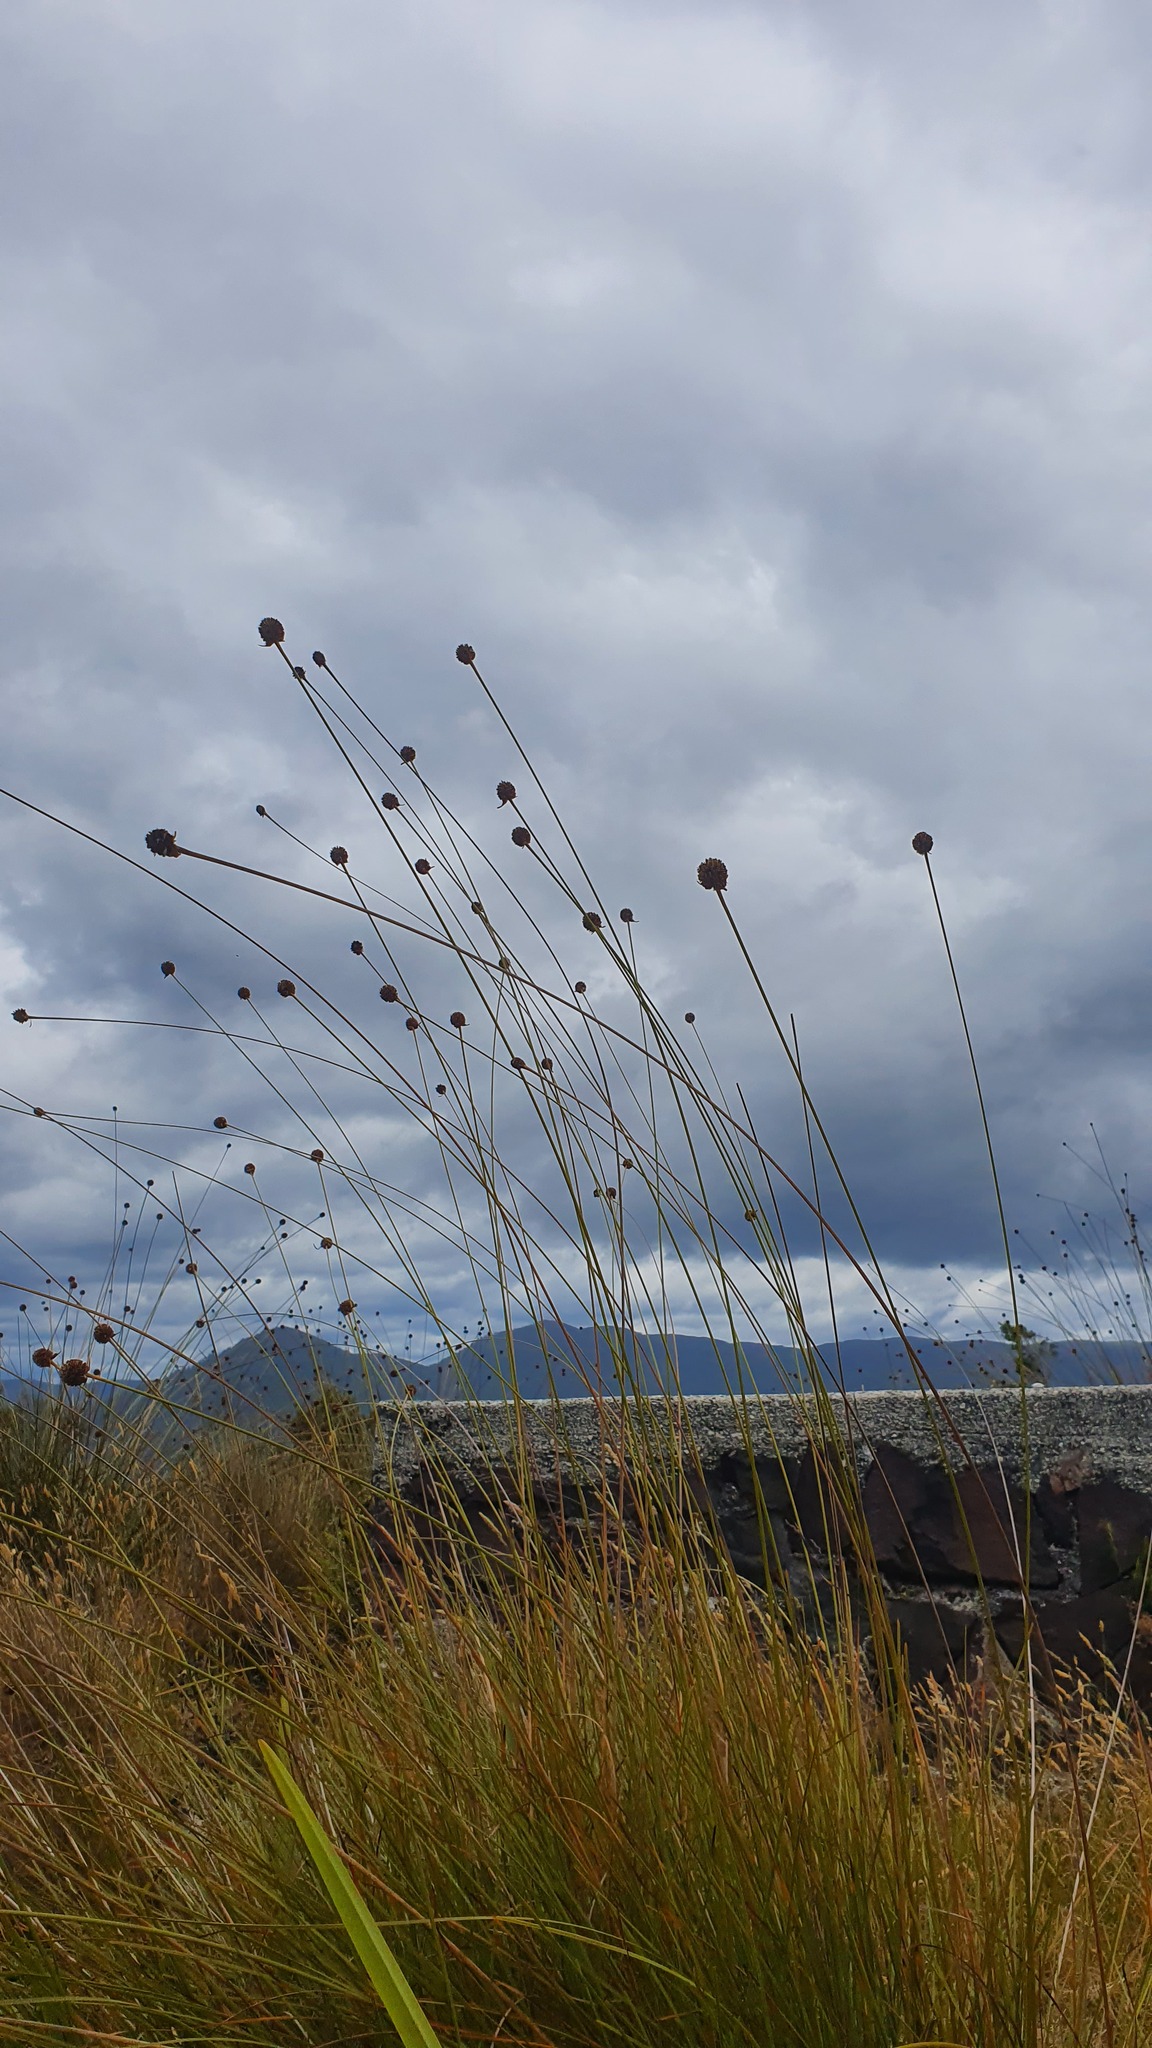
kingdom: Plantae
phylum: Tracheophyta
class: Liliopsida
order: Poales
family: Cyperaceae
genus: Gymnoschoenus
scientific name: Gymnoschoenus sphaerocephalus
